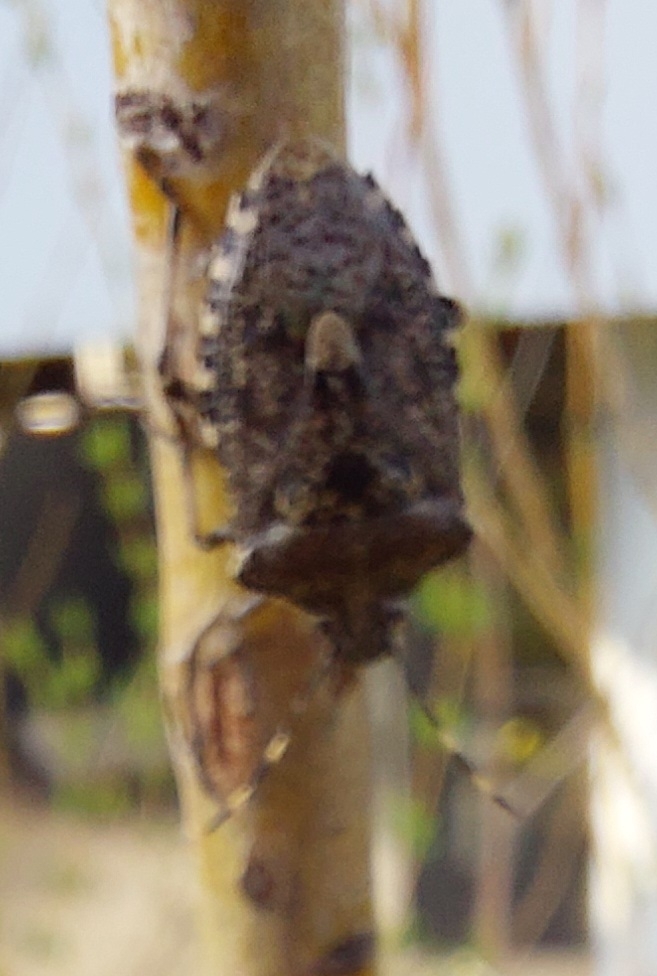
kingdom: Animalia
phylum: Arthropoda
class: Insecta
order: Hemiptera
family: Pentatomidae
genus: Rhaphigaster
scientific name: Rhaphigaster nebulosa
